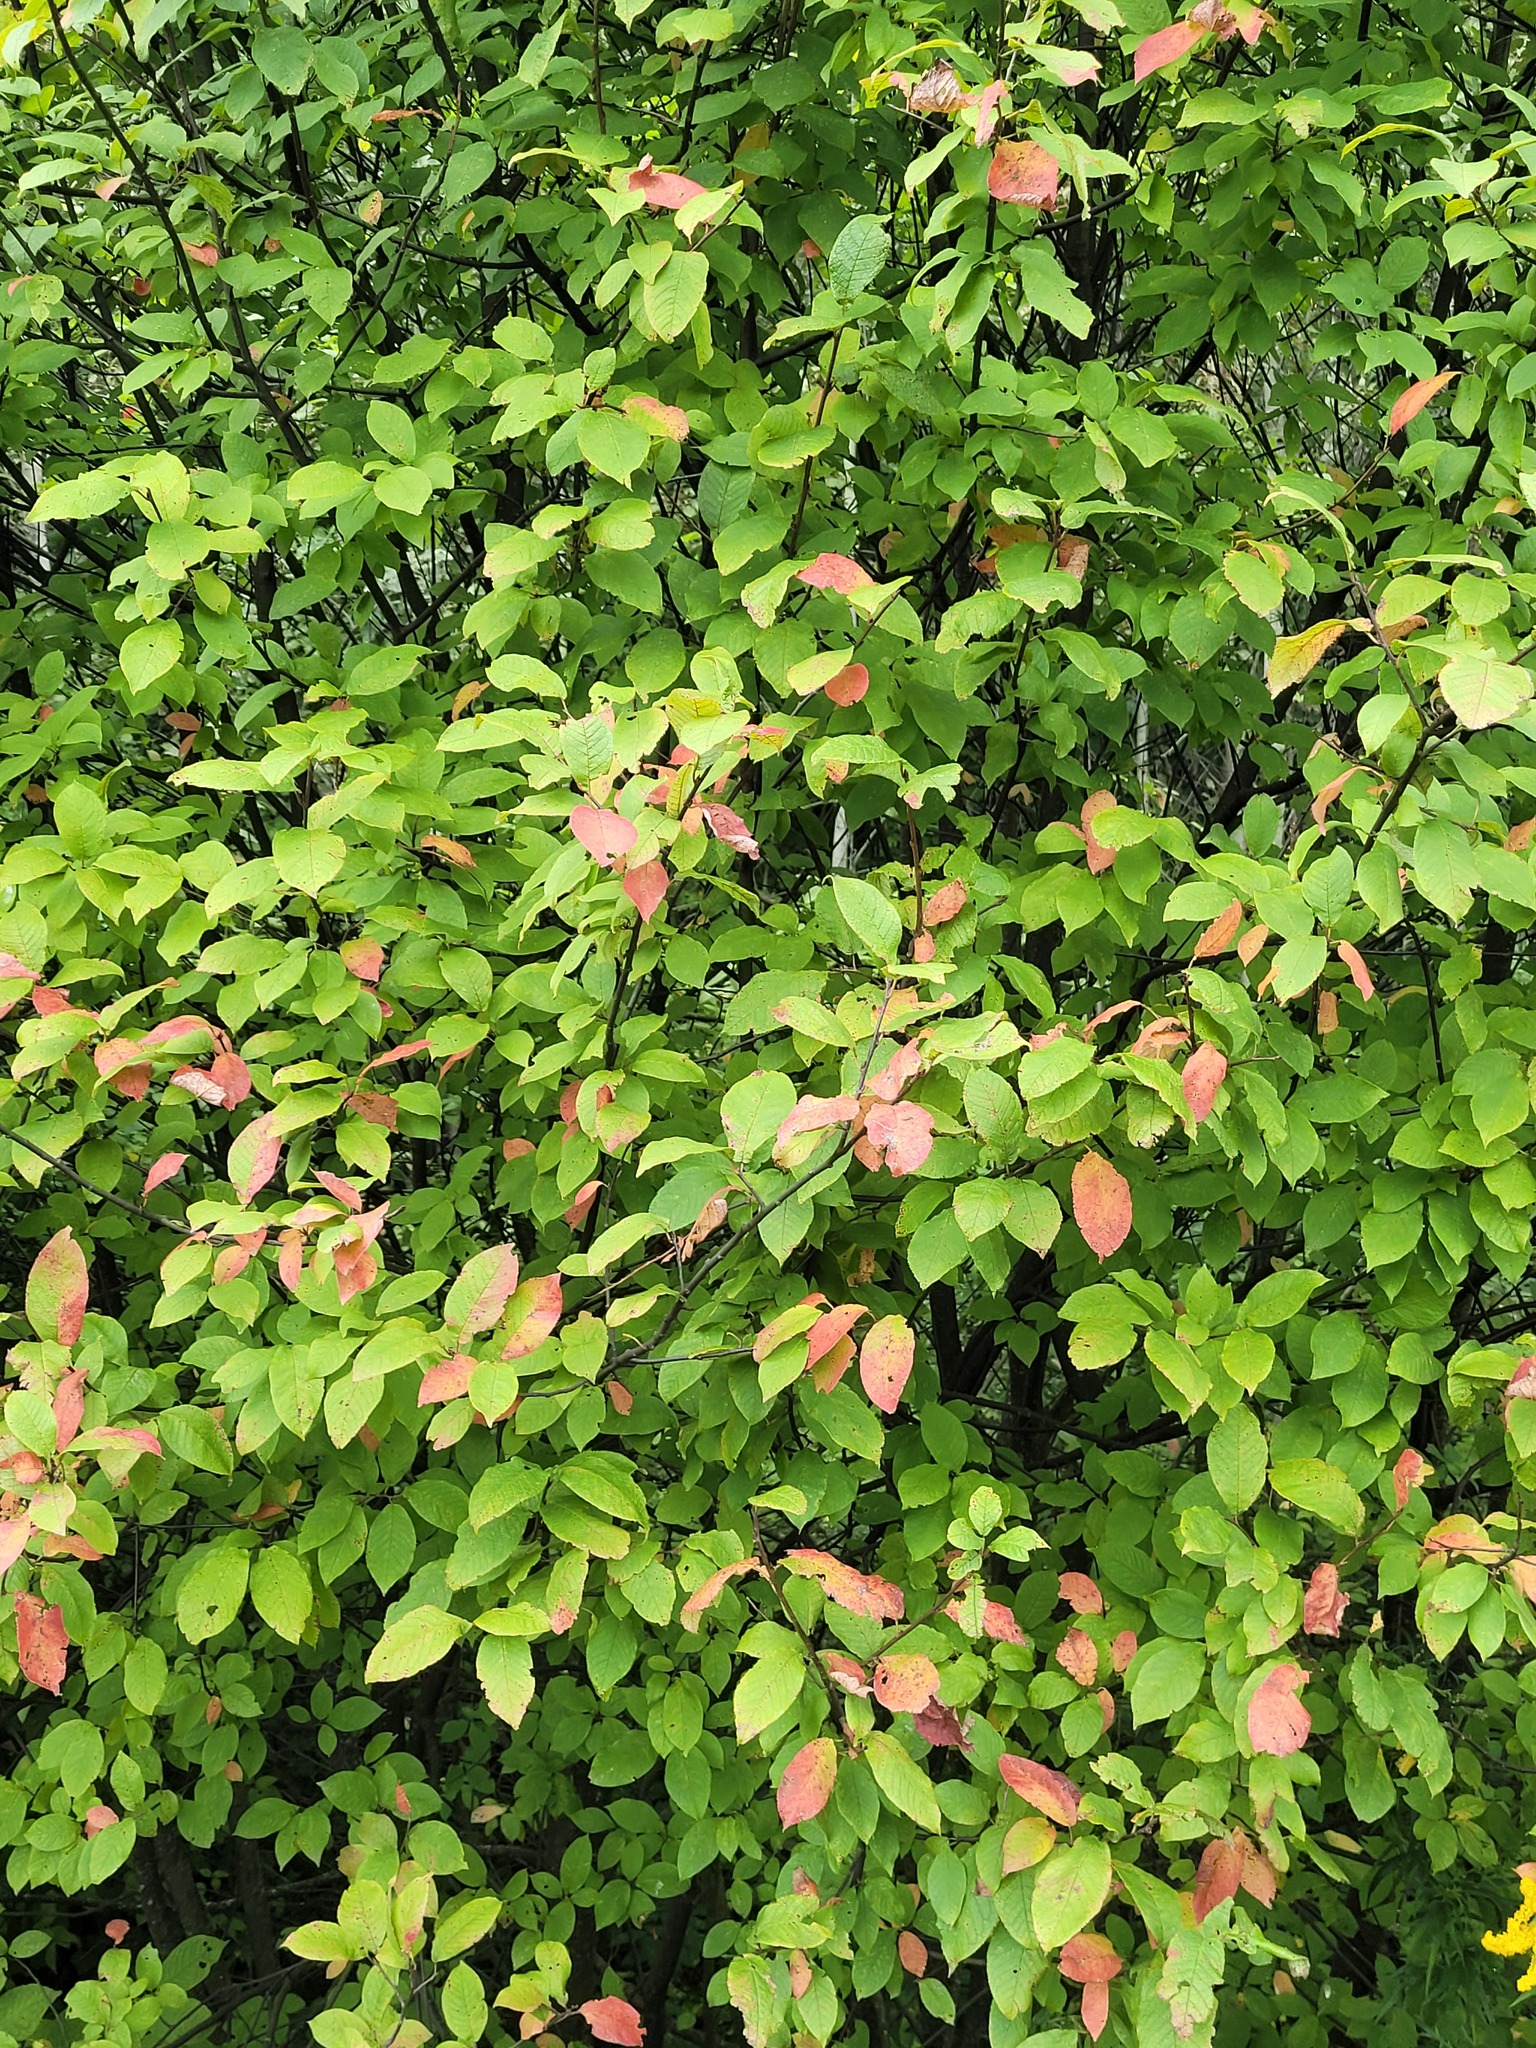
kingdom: Plantae
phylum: Tracheophyta
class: Magnoliopsida
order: Rosales
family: Rosaceae
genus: Prunus
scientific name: Prunus padus
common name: Bird cherry
